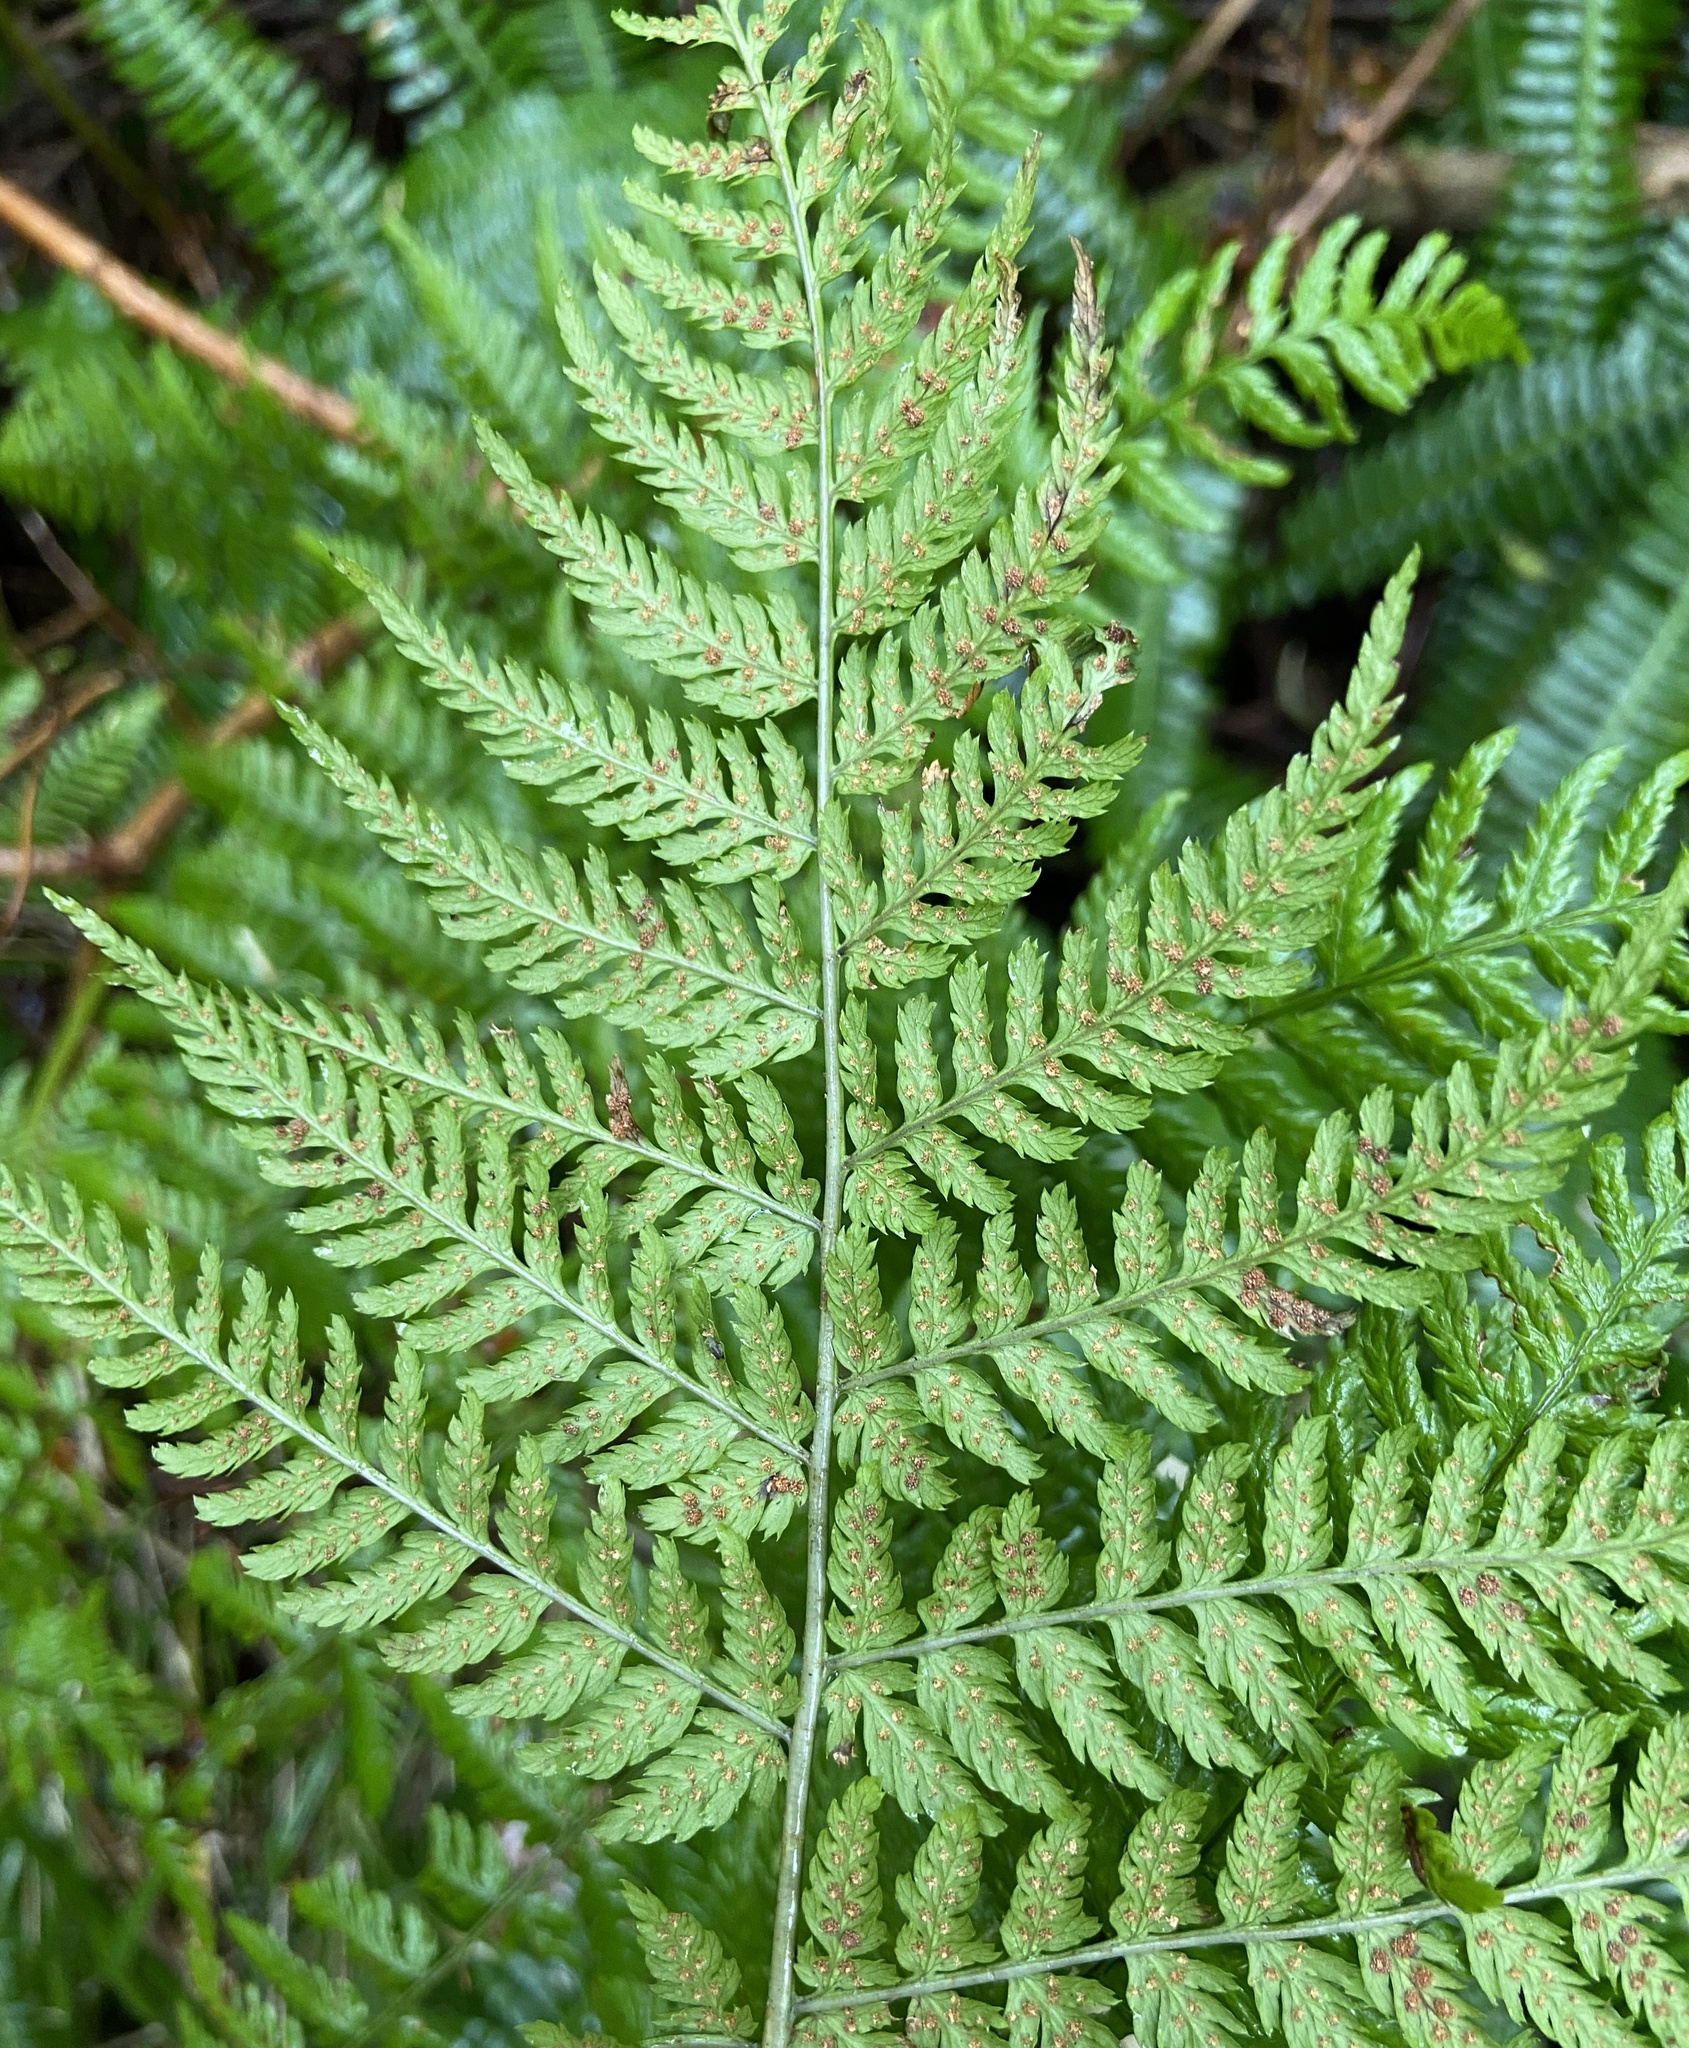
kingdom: Plantae
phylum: Tracheophyta
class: Polypodiopsida
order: Polypodiales
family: Dryopteridaceae
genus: Dryopteris
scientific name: Dryopteris expansa
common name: Northern buckler fern
